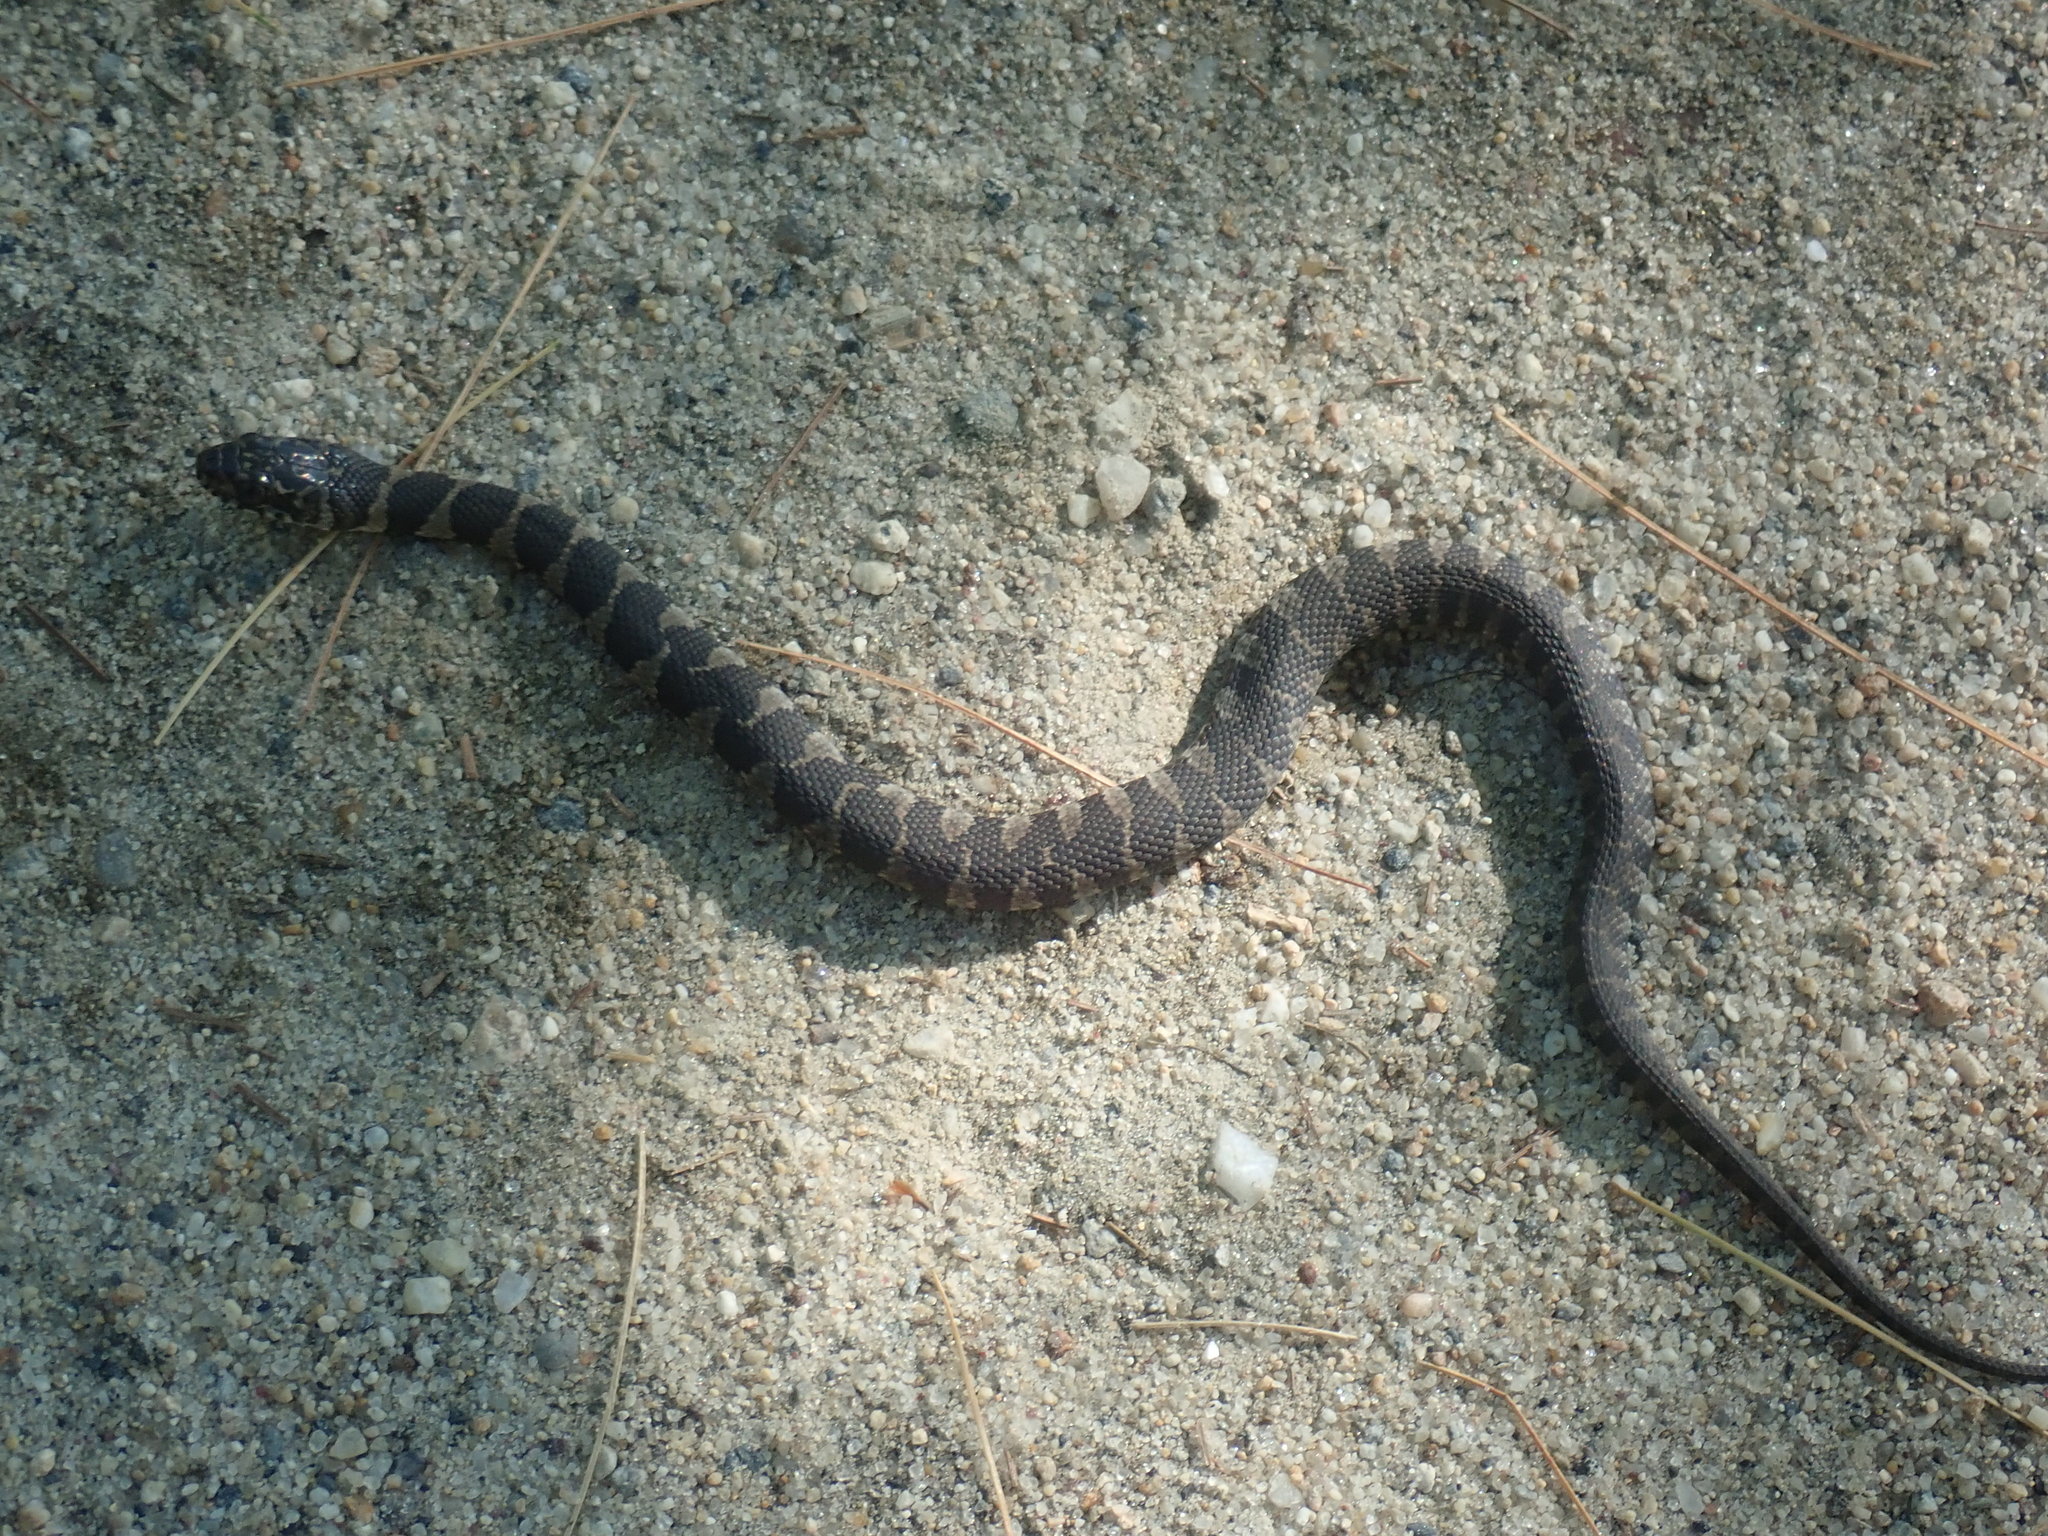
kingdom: Animalia
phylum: Chordata
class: Squamata
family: Colubridae
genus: Nerodia
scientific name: Nerodia sipedon
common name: Northern water snake
